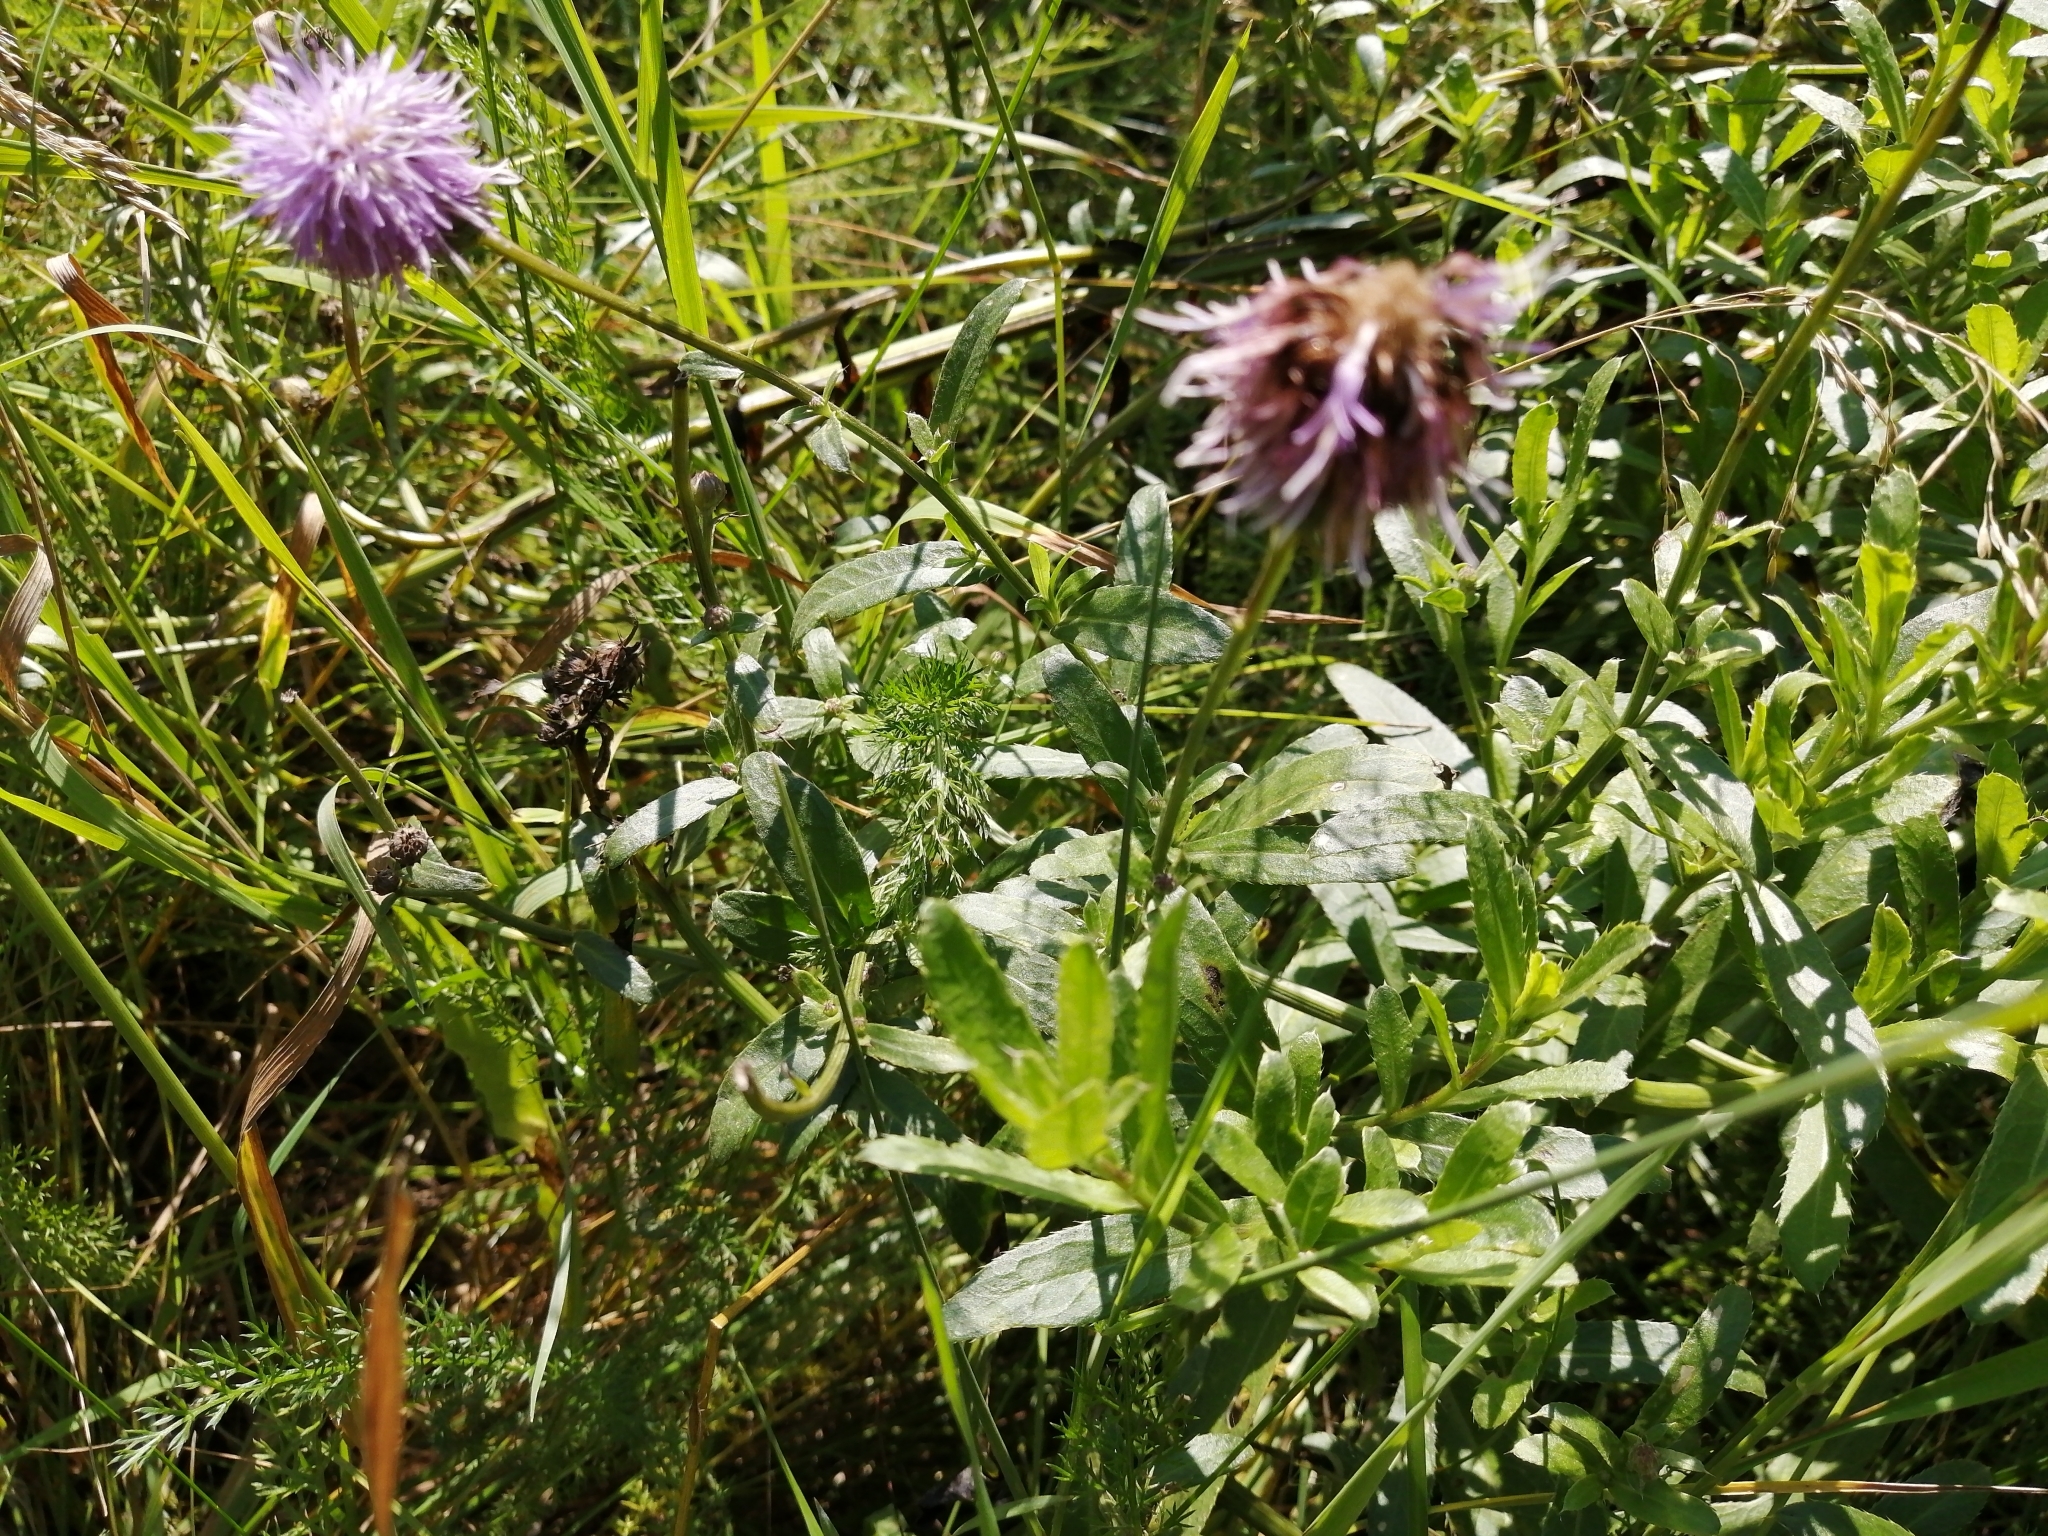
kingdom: Plantae
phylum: Tracheophyta
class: Magnoliopsida
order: Asterales
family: Asteraceae
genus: Centaurea
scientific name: Centaurea scabiosa
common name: Greater knapweed
